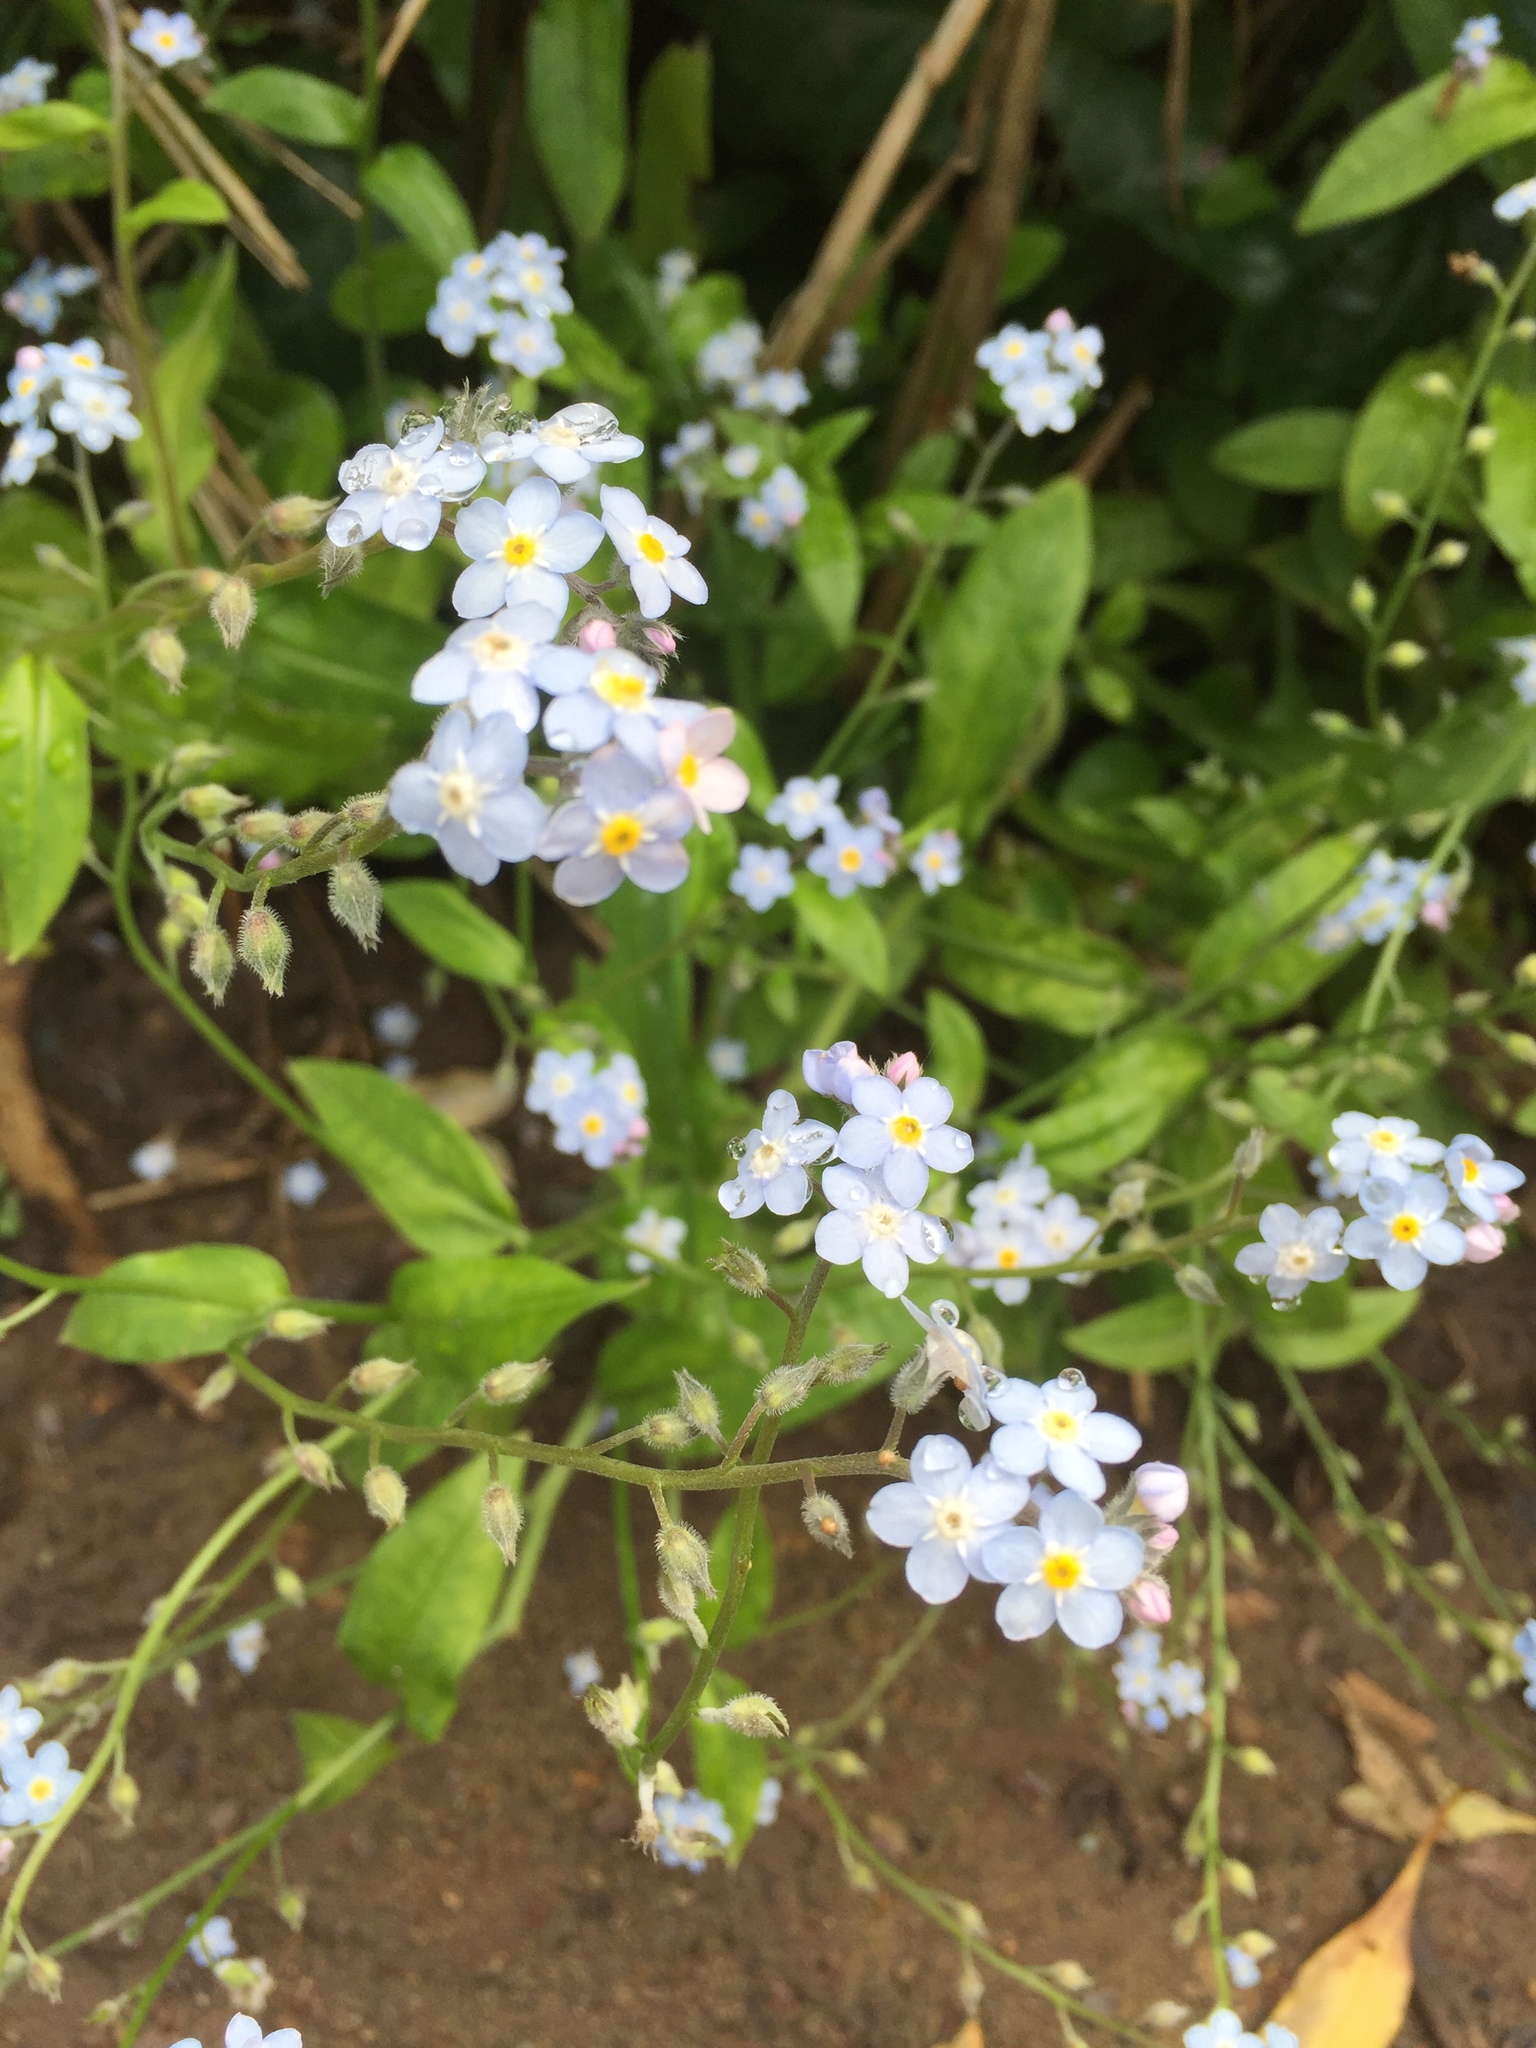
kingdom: Plantae
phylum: Tracheophyta
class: Magnoliopsida
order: Boraginales
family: Boraginaceae
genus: Myosotis
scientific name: Myosotis latifolia
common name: Broadleaf forget-me-not
